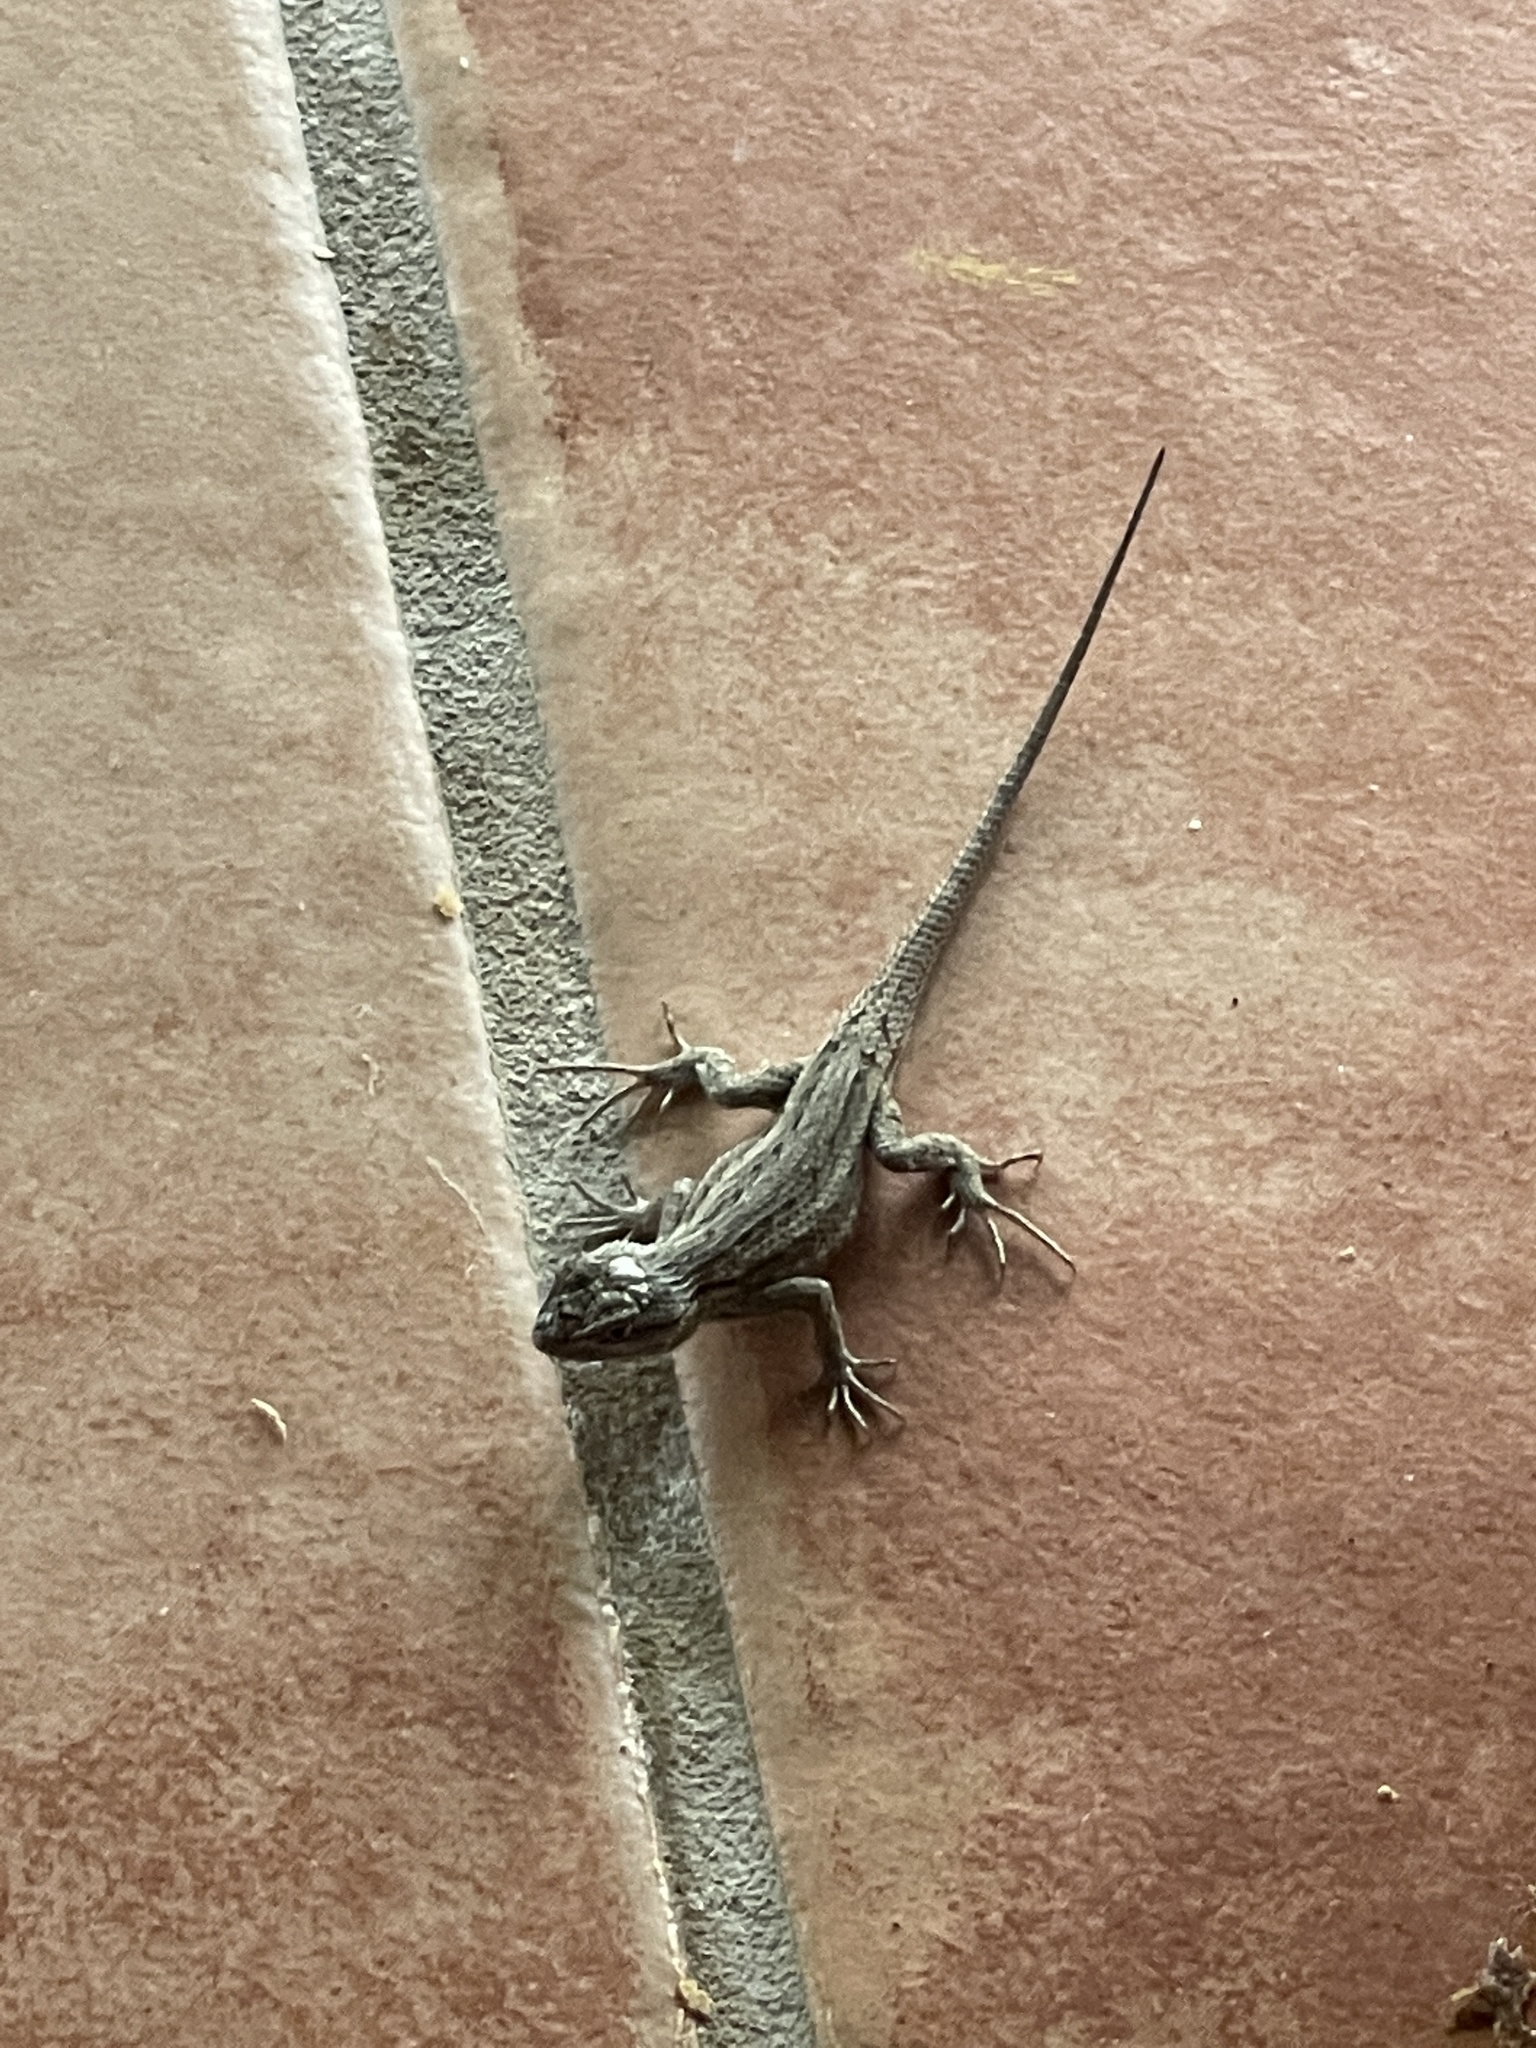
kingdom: Animalia
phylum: Chordata
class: Squamata
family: Phrynosomatidae
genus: Sceloporus
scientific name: Sceloporus cowlesi
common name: White sands prairie lizard
